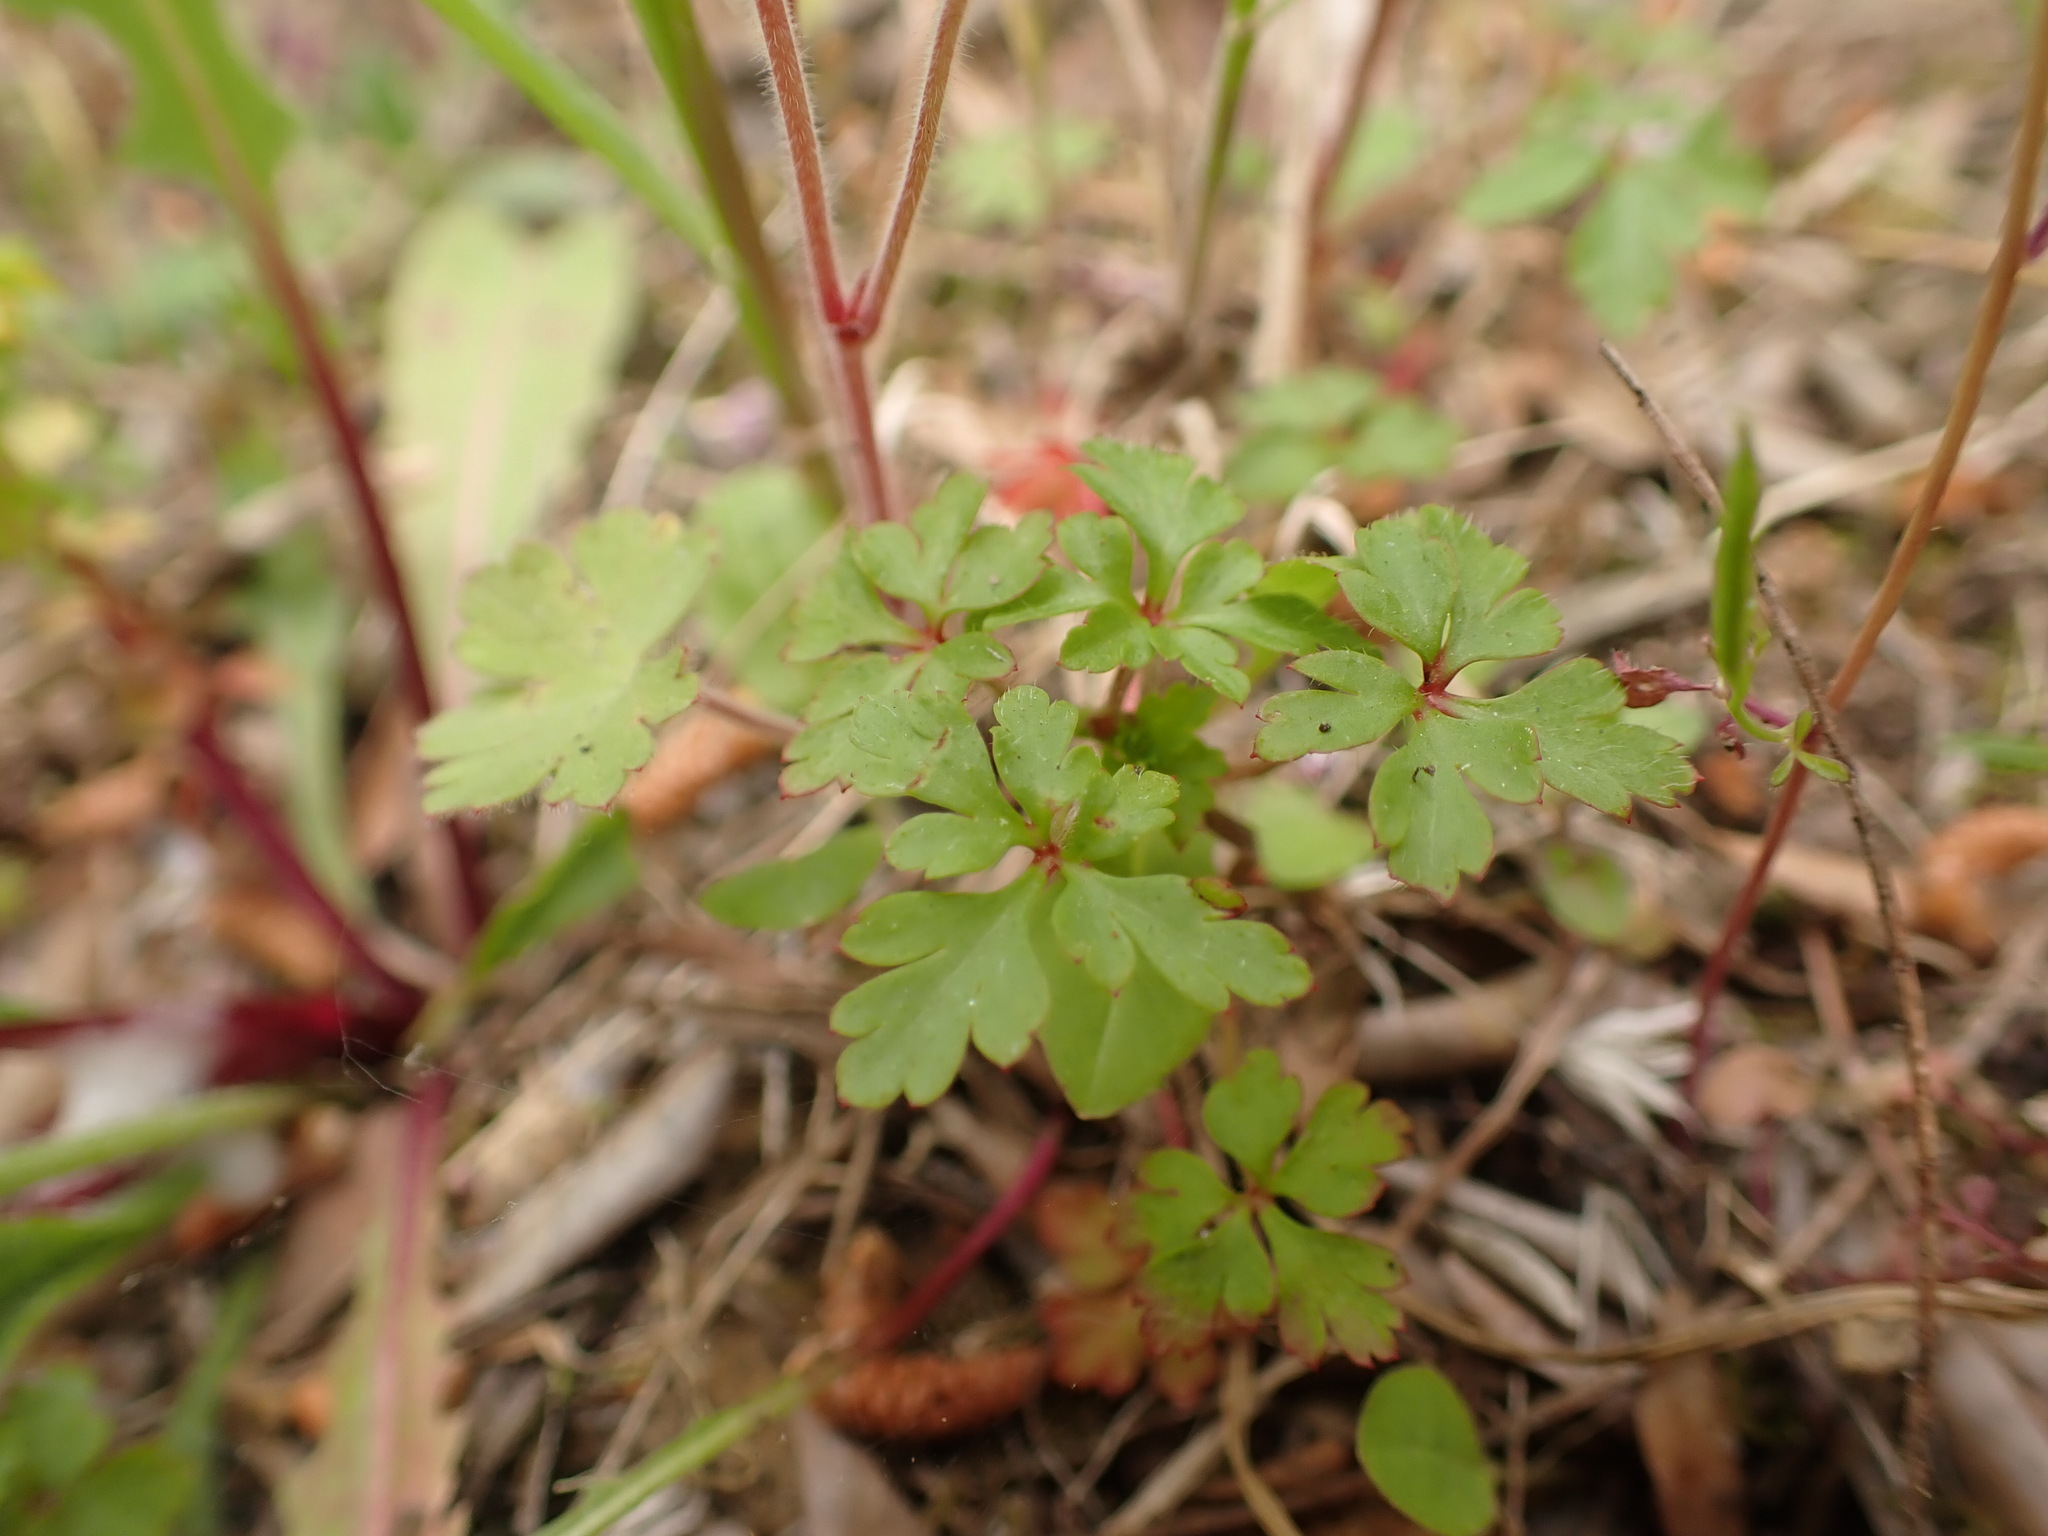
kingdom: Plantae
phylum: Tracheophyta
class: Magnoliopsida
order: Geraniales
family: Geraniaceae
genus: Geranium
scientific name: Geranium purpureum
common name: Little-robin
